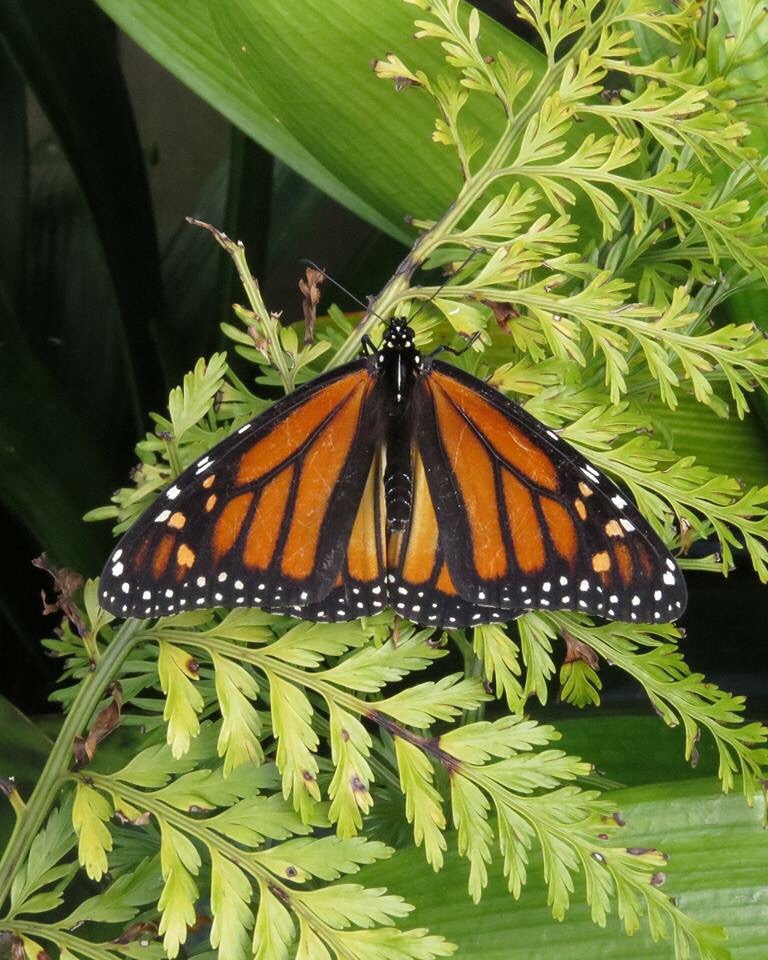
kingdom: Animalia
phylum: Arthropoda
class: Insecta
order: Lepidoptera
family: Nymphalidae
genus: Danaus
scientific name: Danaus plexippus
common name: Monarch
